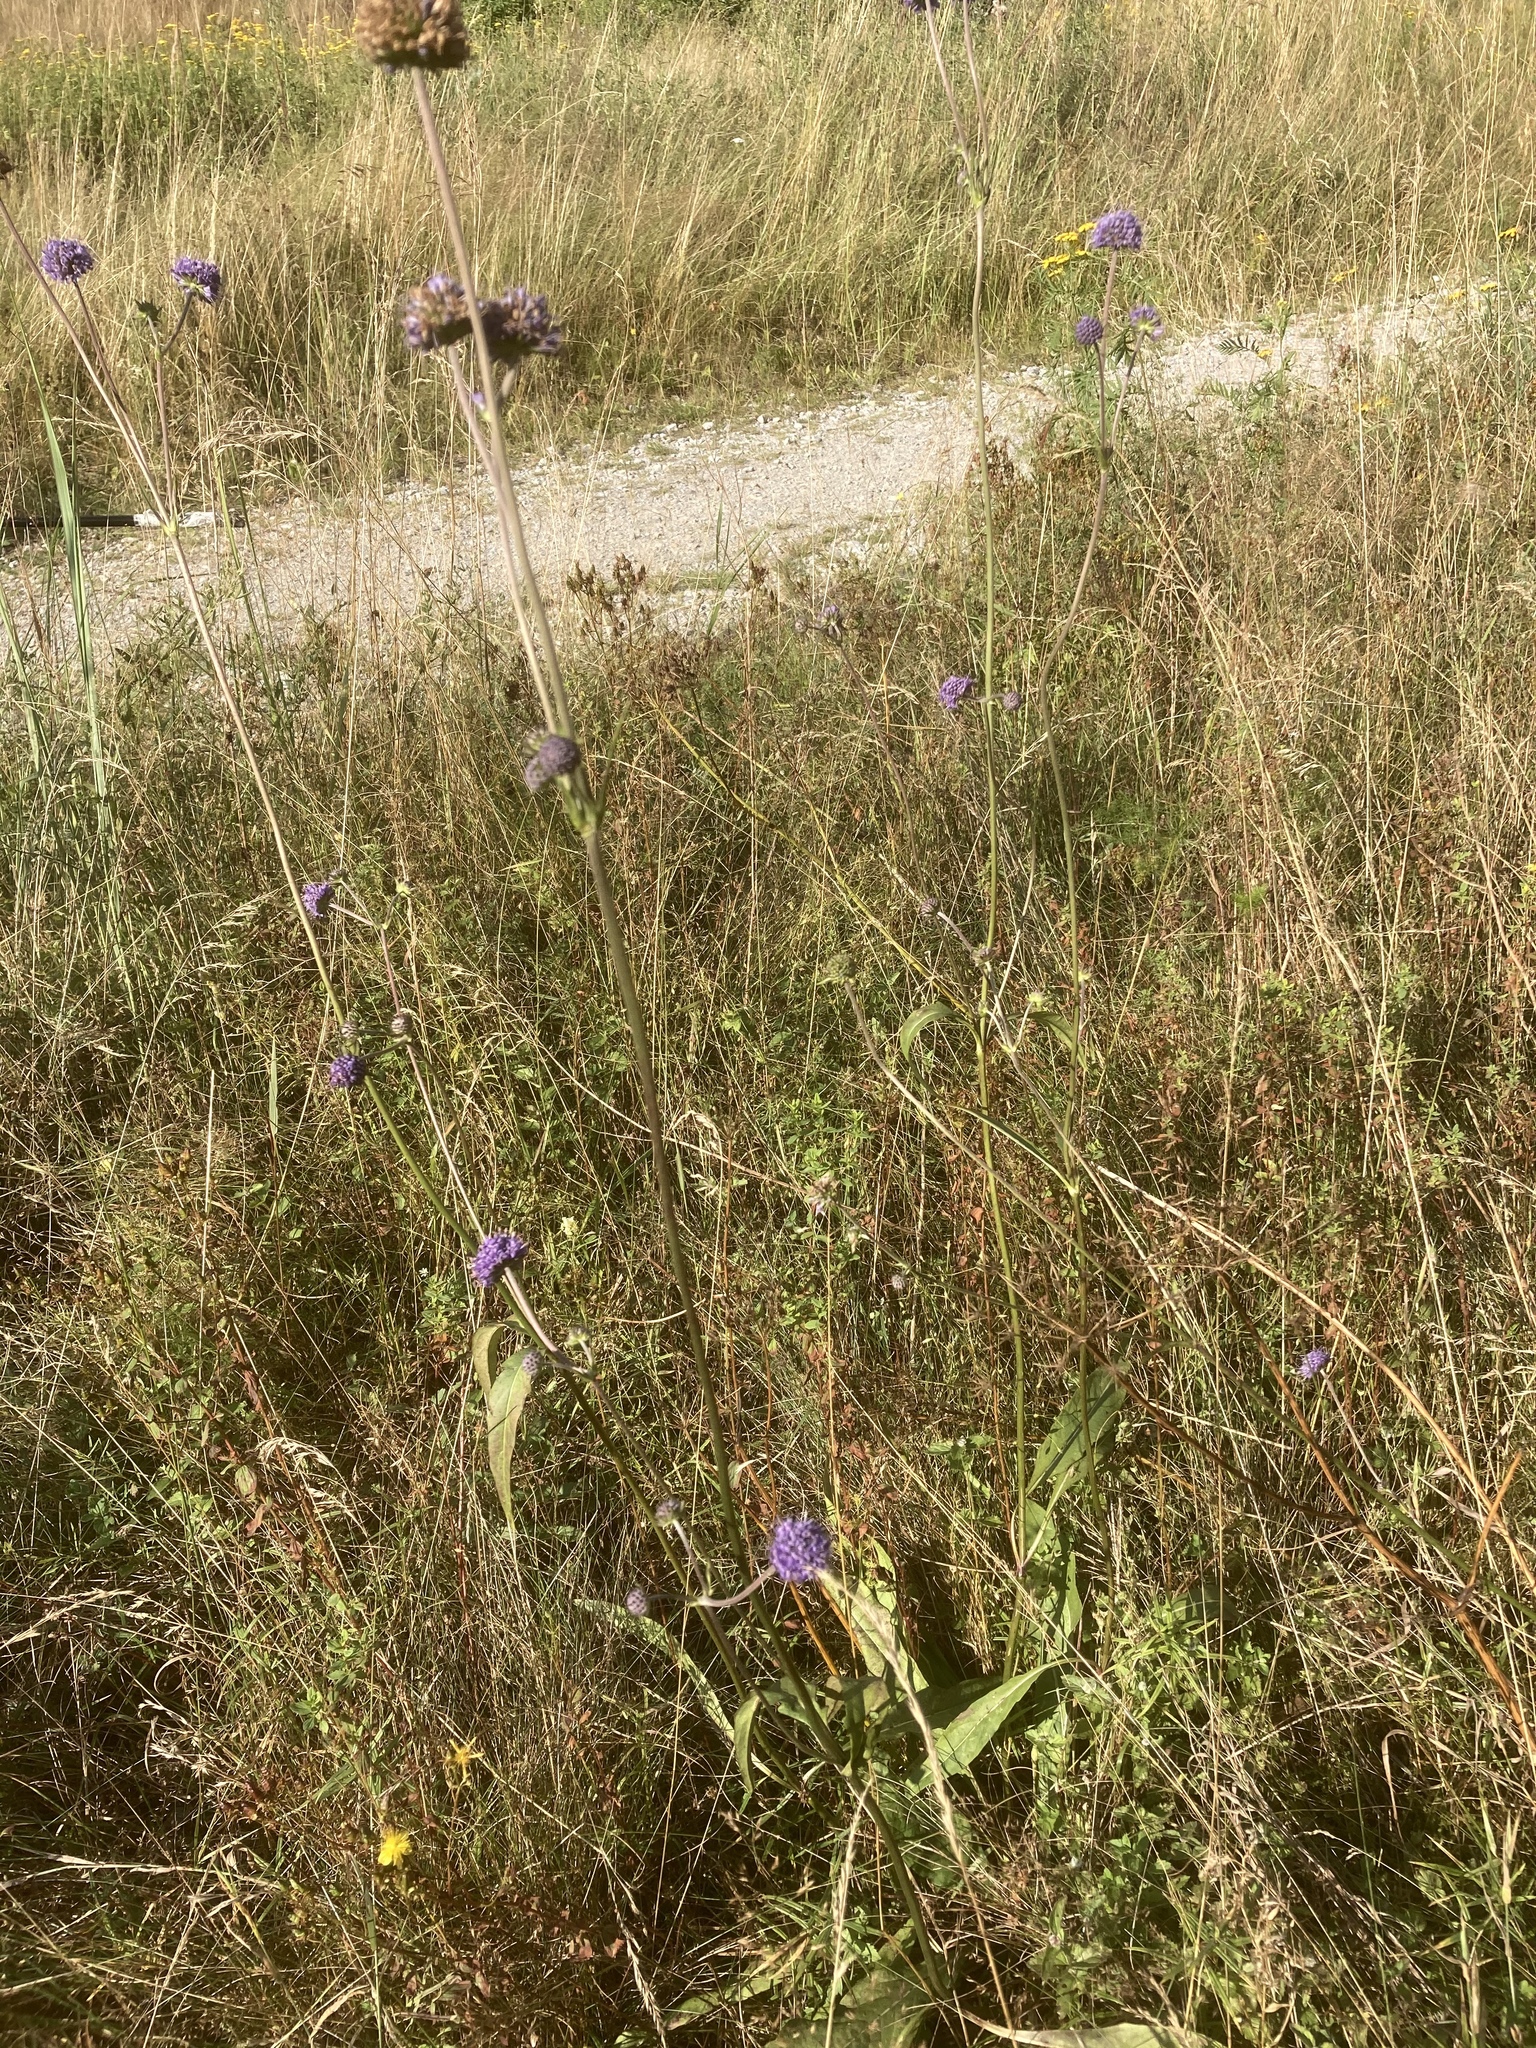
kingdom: Plantae
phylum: Tracheophyta
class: Magnoliopsida
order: Dipsacales
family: Caprifoliaceae
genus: Succisa
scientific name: Succisa pratensis
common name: Devil's-bit
